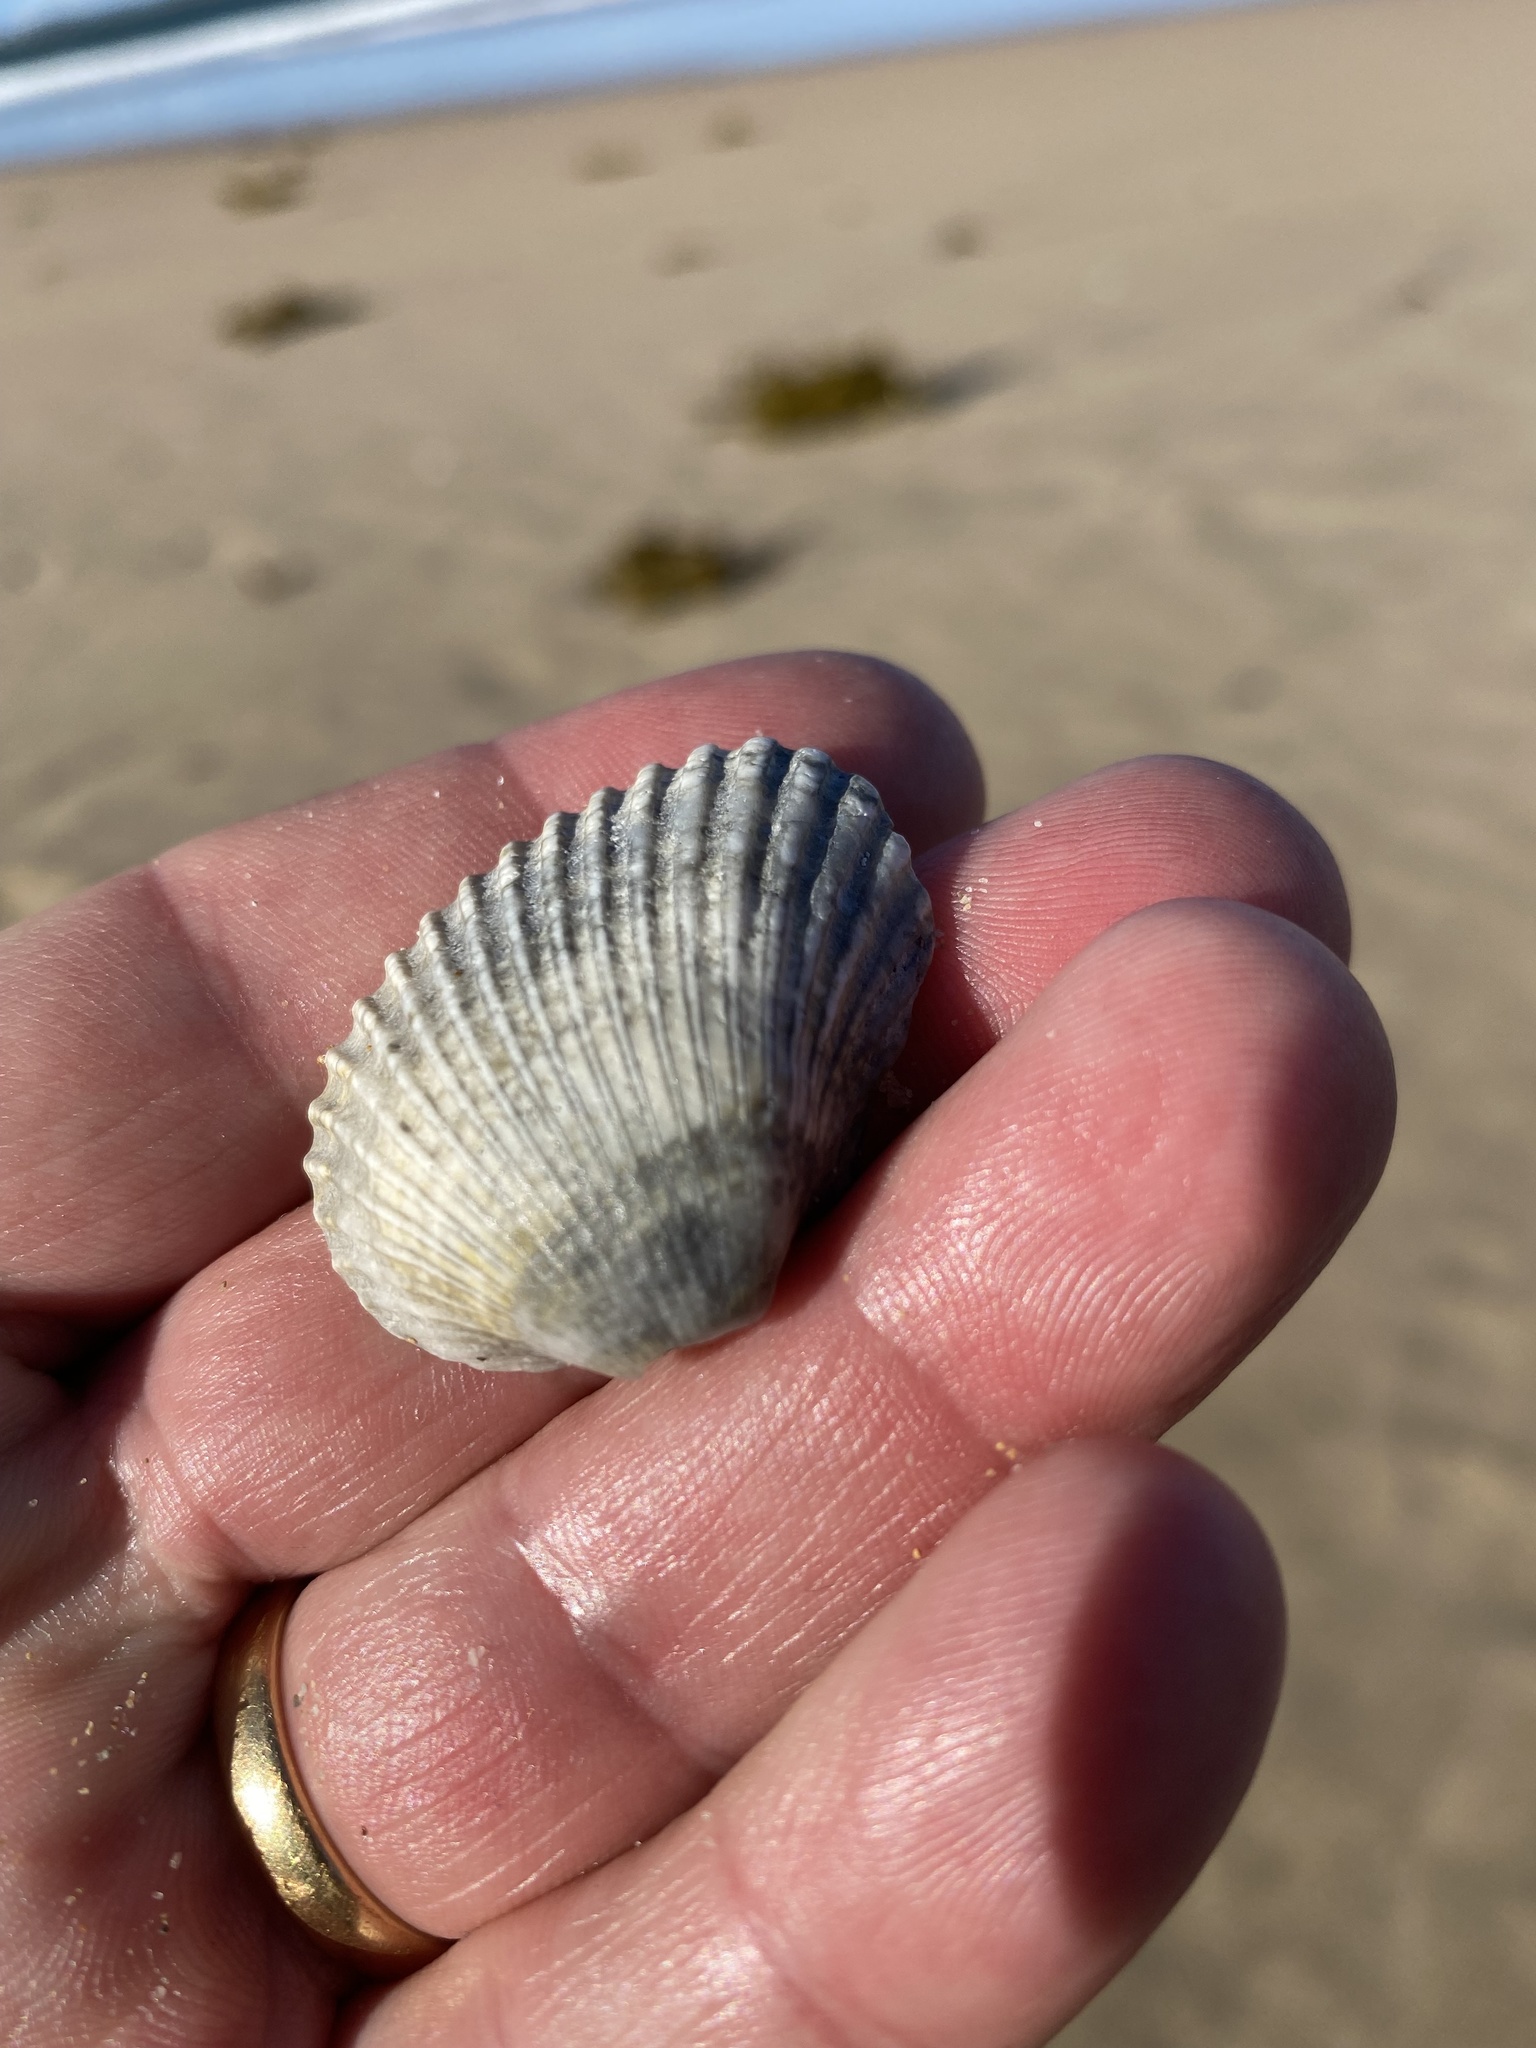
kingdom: Animalia
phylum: Mollusca
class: Bivalvia
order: Arcida
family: Arcidae
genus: Anadara
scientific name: Anadara trapezia
